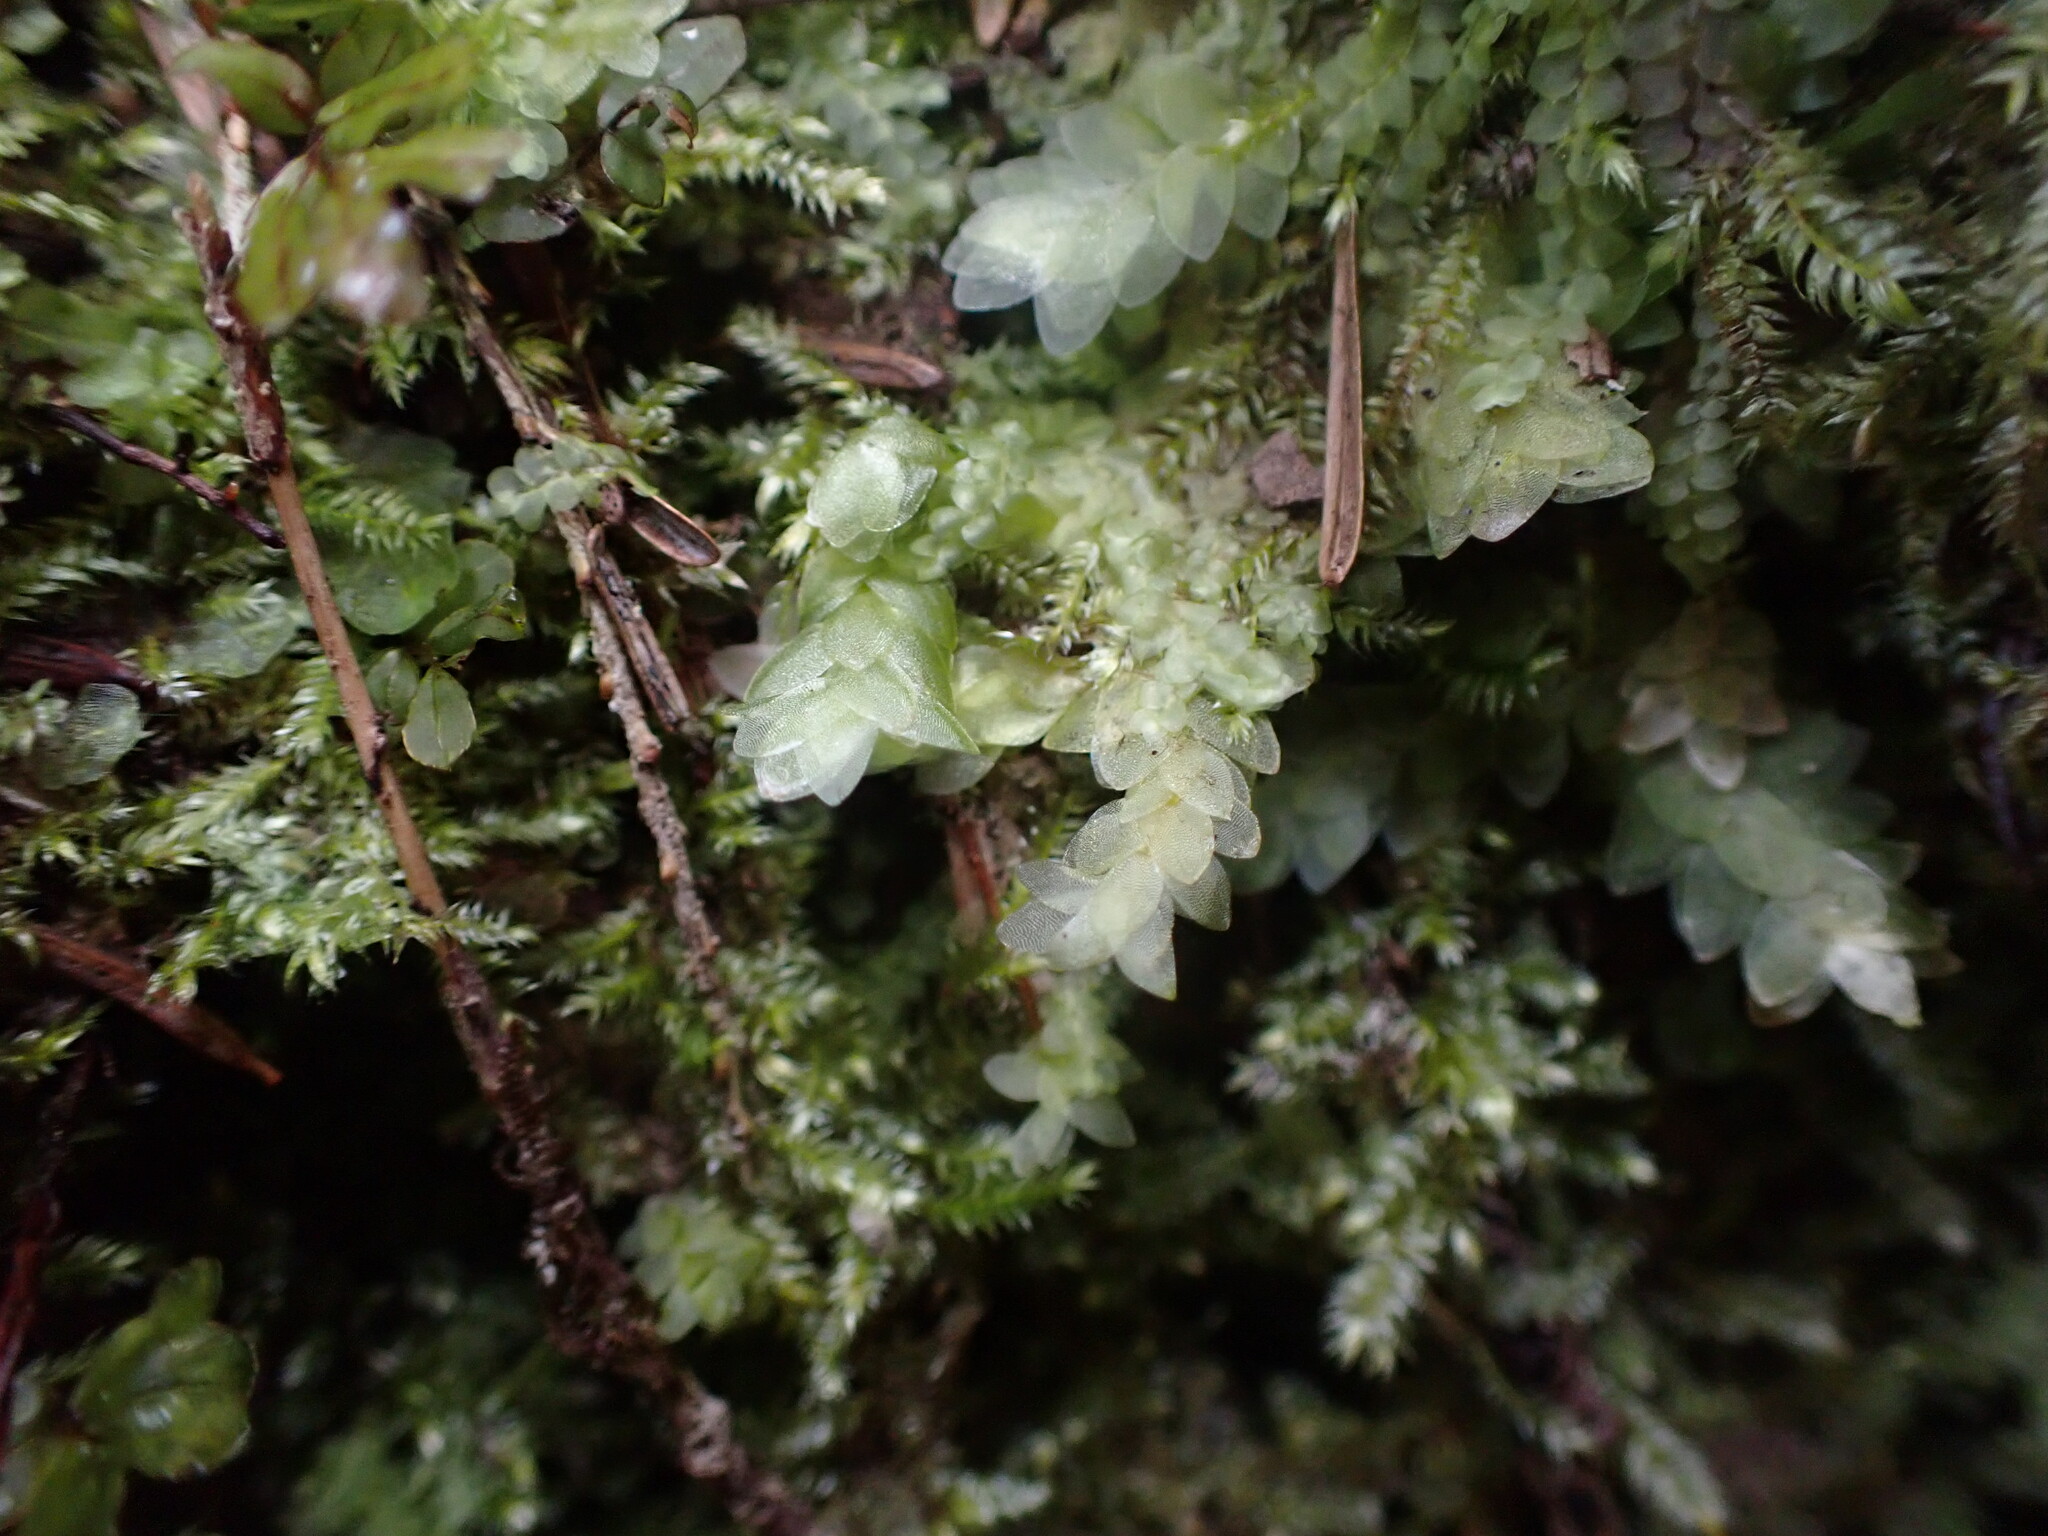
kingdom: Plantae
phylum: Bryophyta
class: Bryopsida
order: Hookeriales
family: Hookeriaceae
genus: Hookeria
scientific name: Hookeria lucens
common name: Shining hookeria
